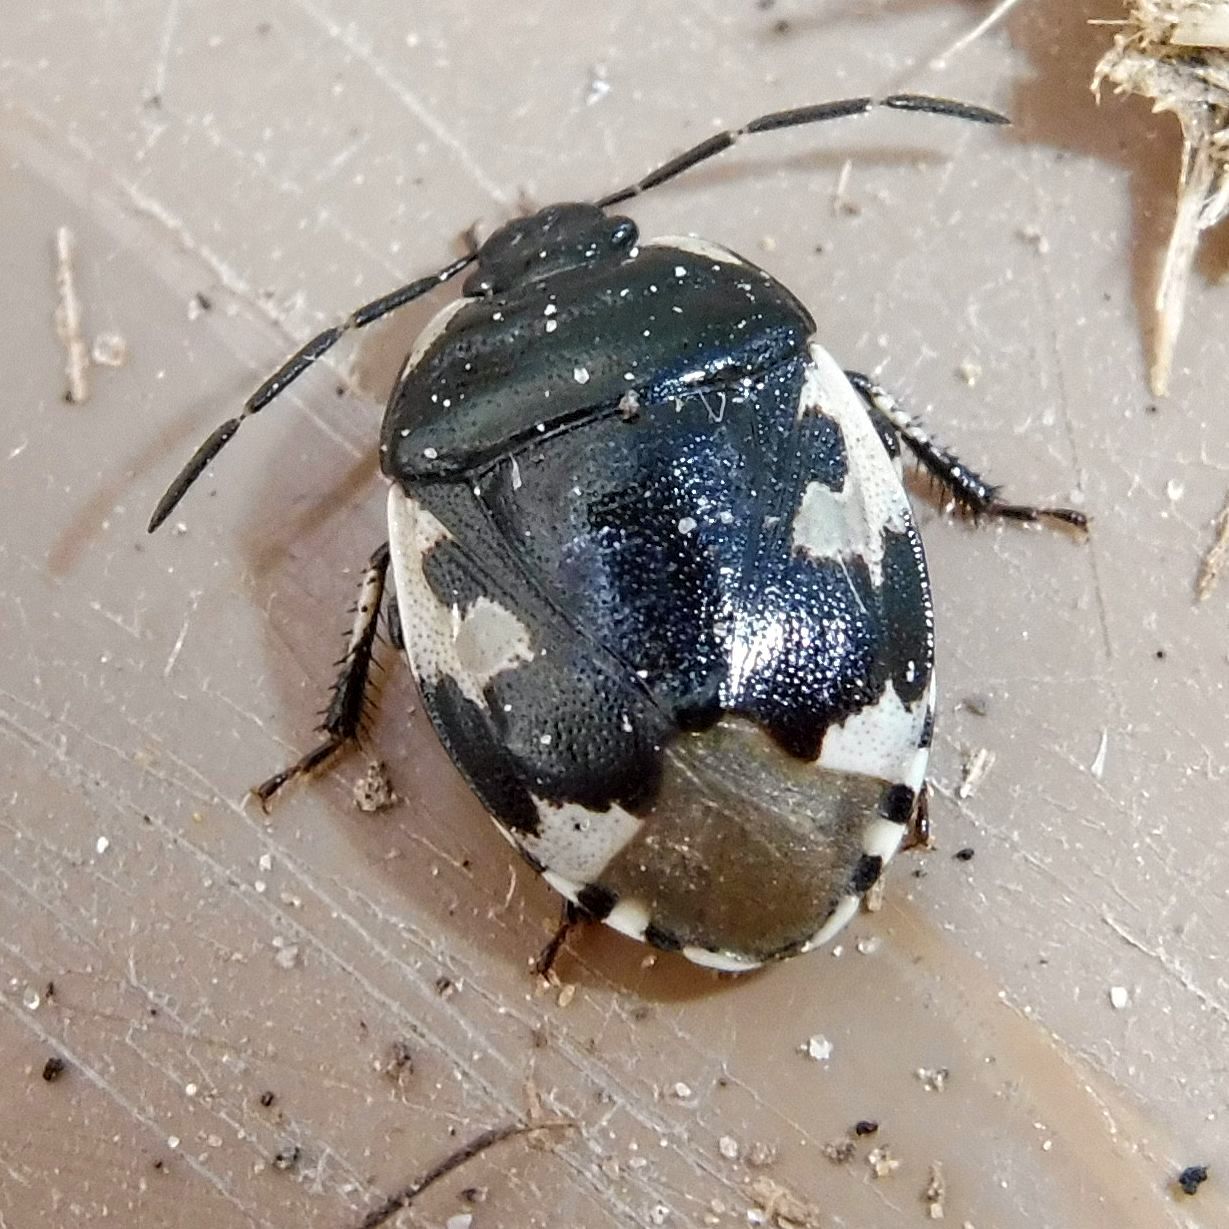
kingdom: Animalia
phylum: Arthropoda
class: Insecta
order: Hemiptera
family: Cydnidae
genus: Tritomegas
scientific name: Tritomegas bicolor
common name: Pied shieldbug
